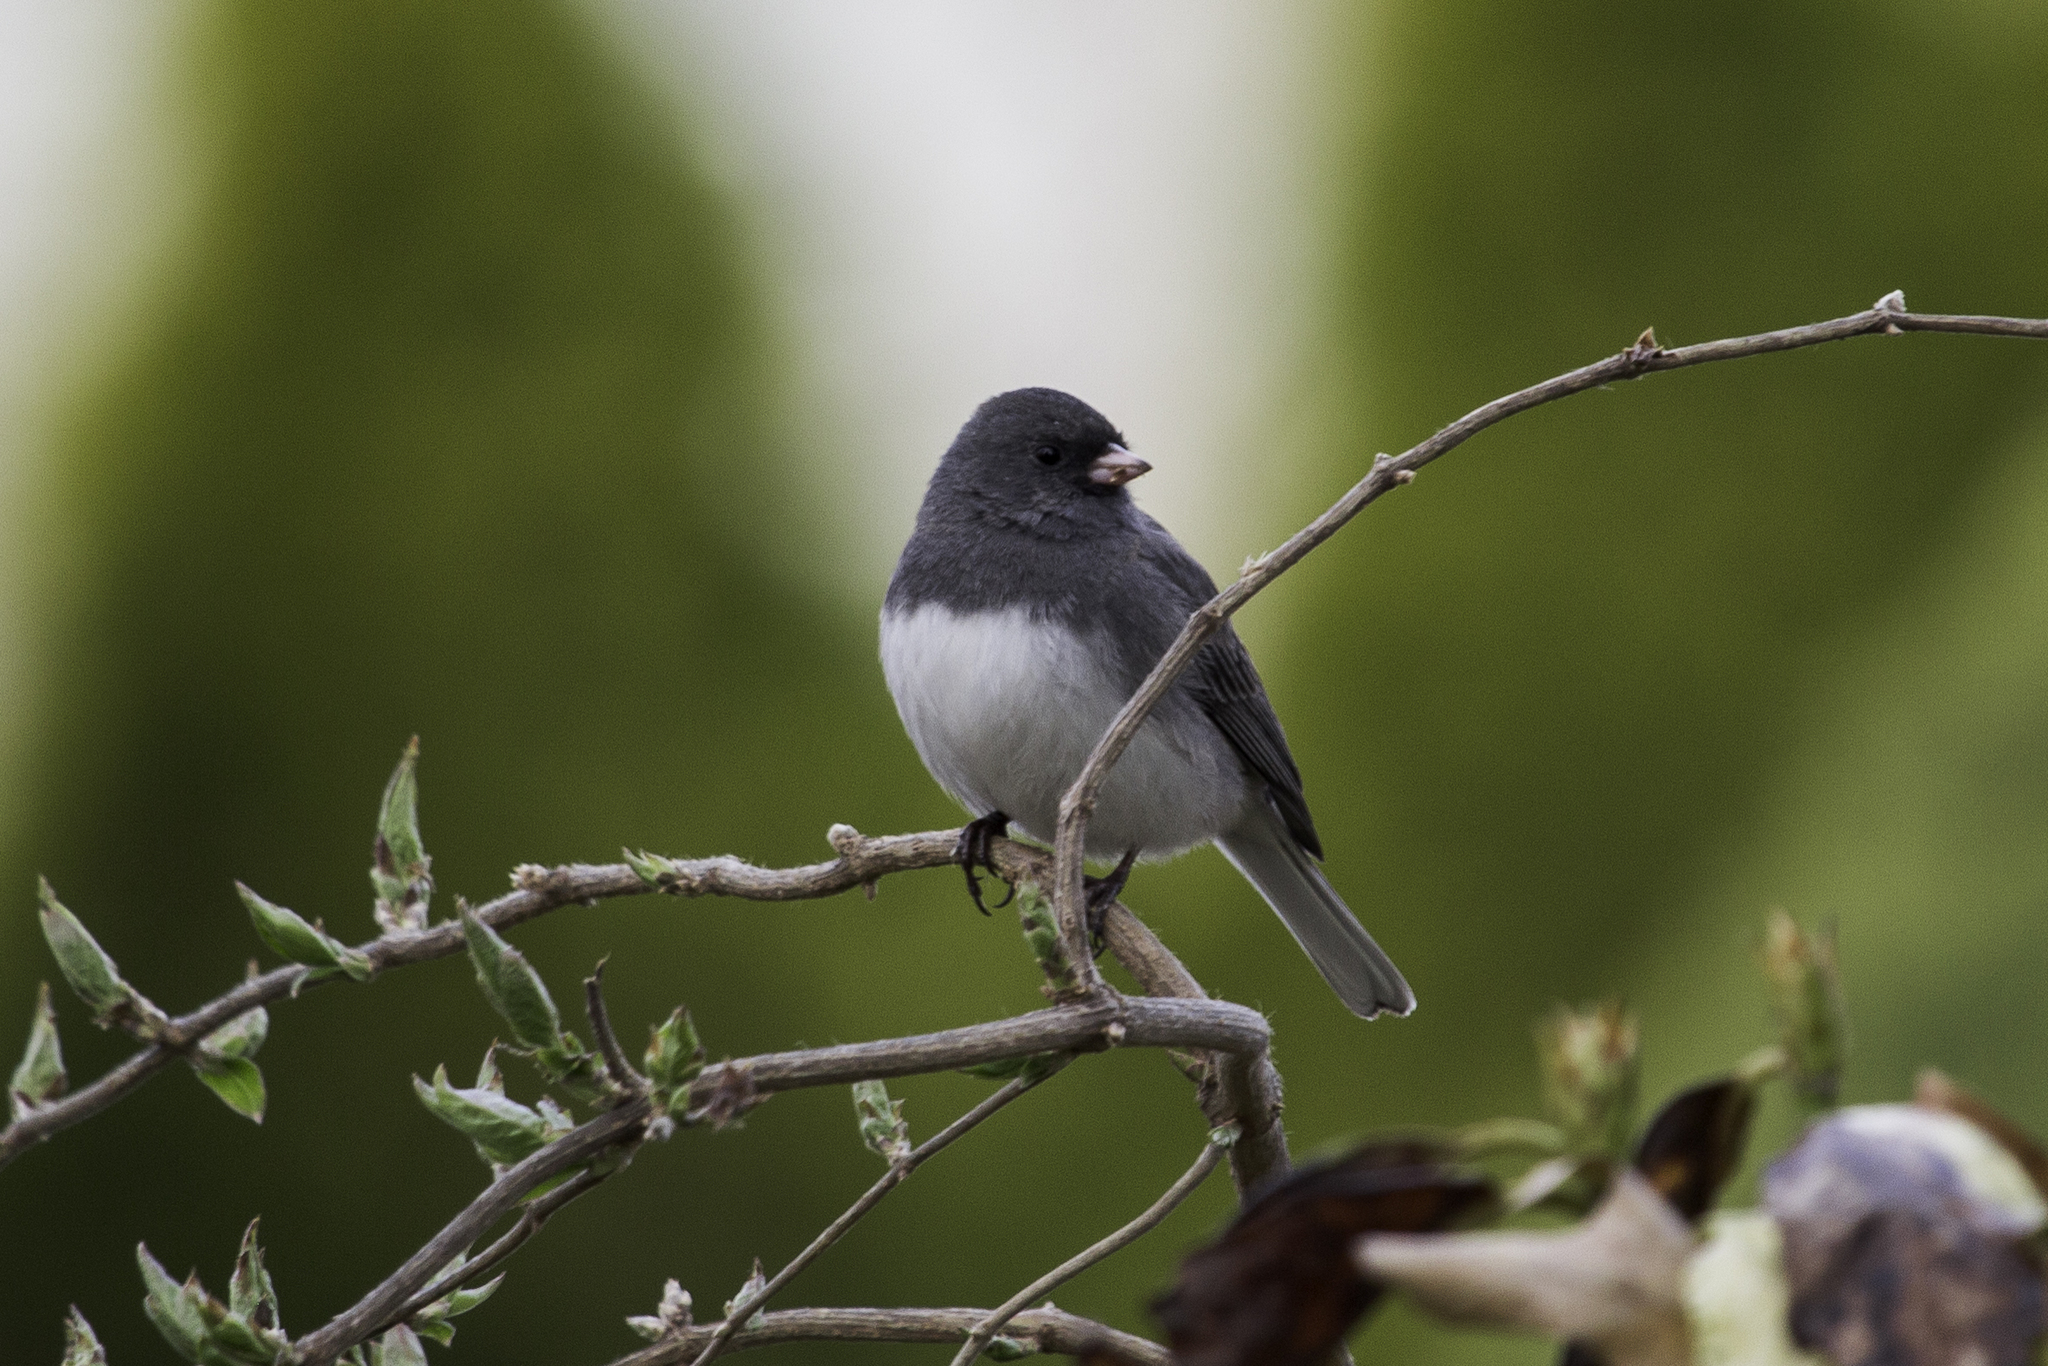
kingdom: Animalia
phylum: Chordata
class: Aves
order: Passeriformes
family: Passerellidae
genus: Junco
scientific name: Junco hyemalis
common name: Dark-eyed junco
